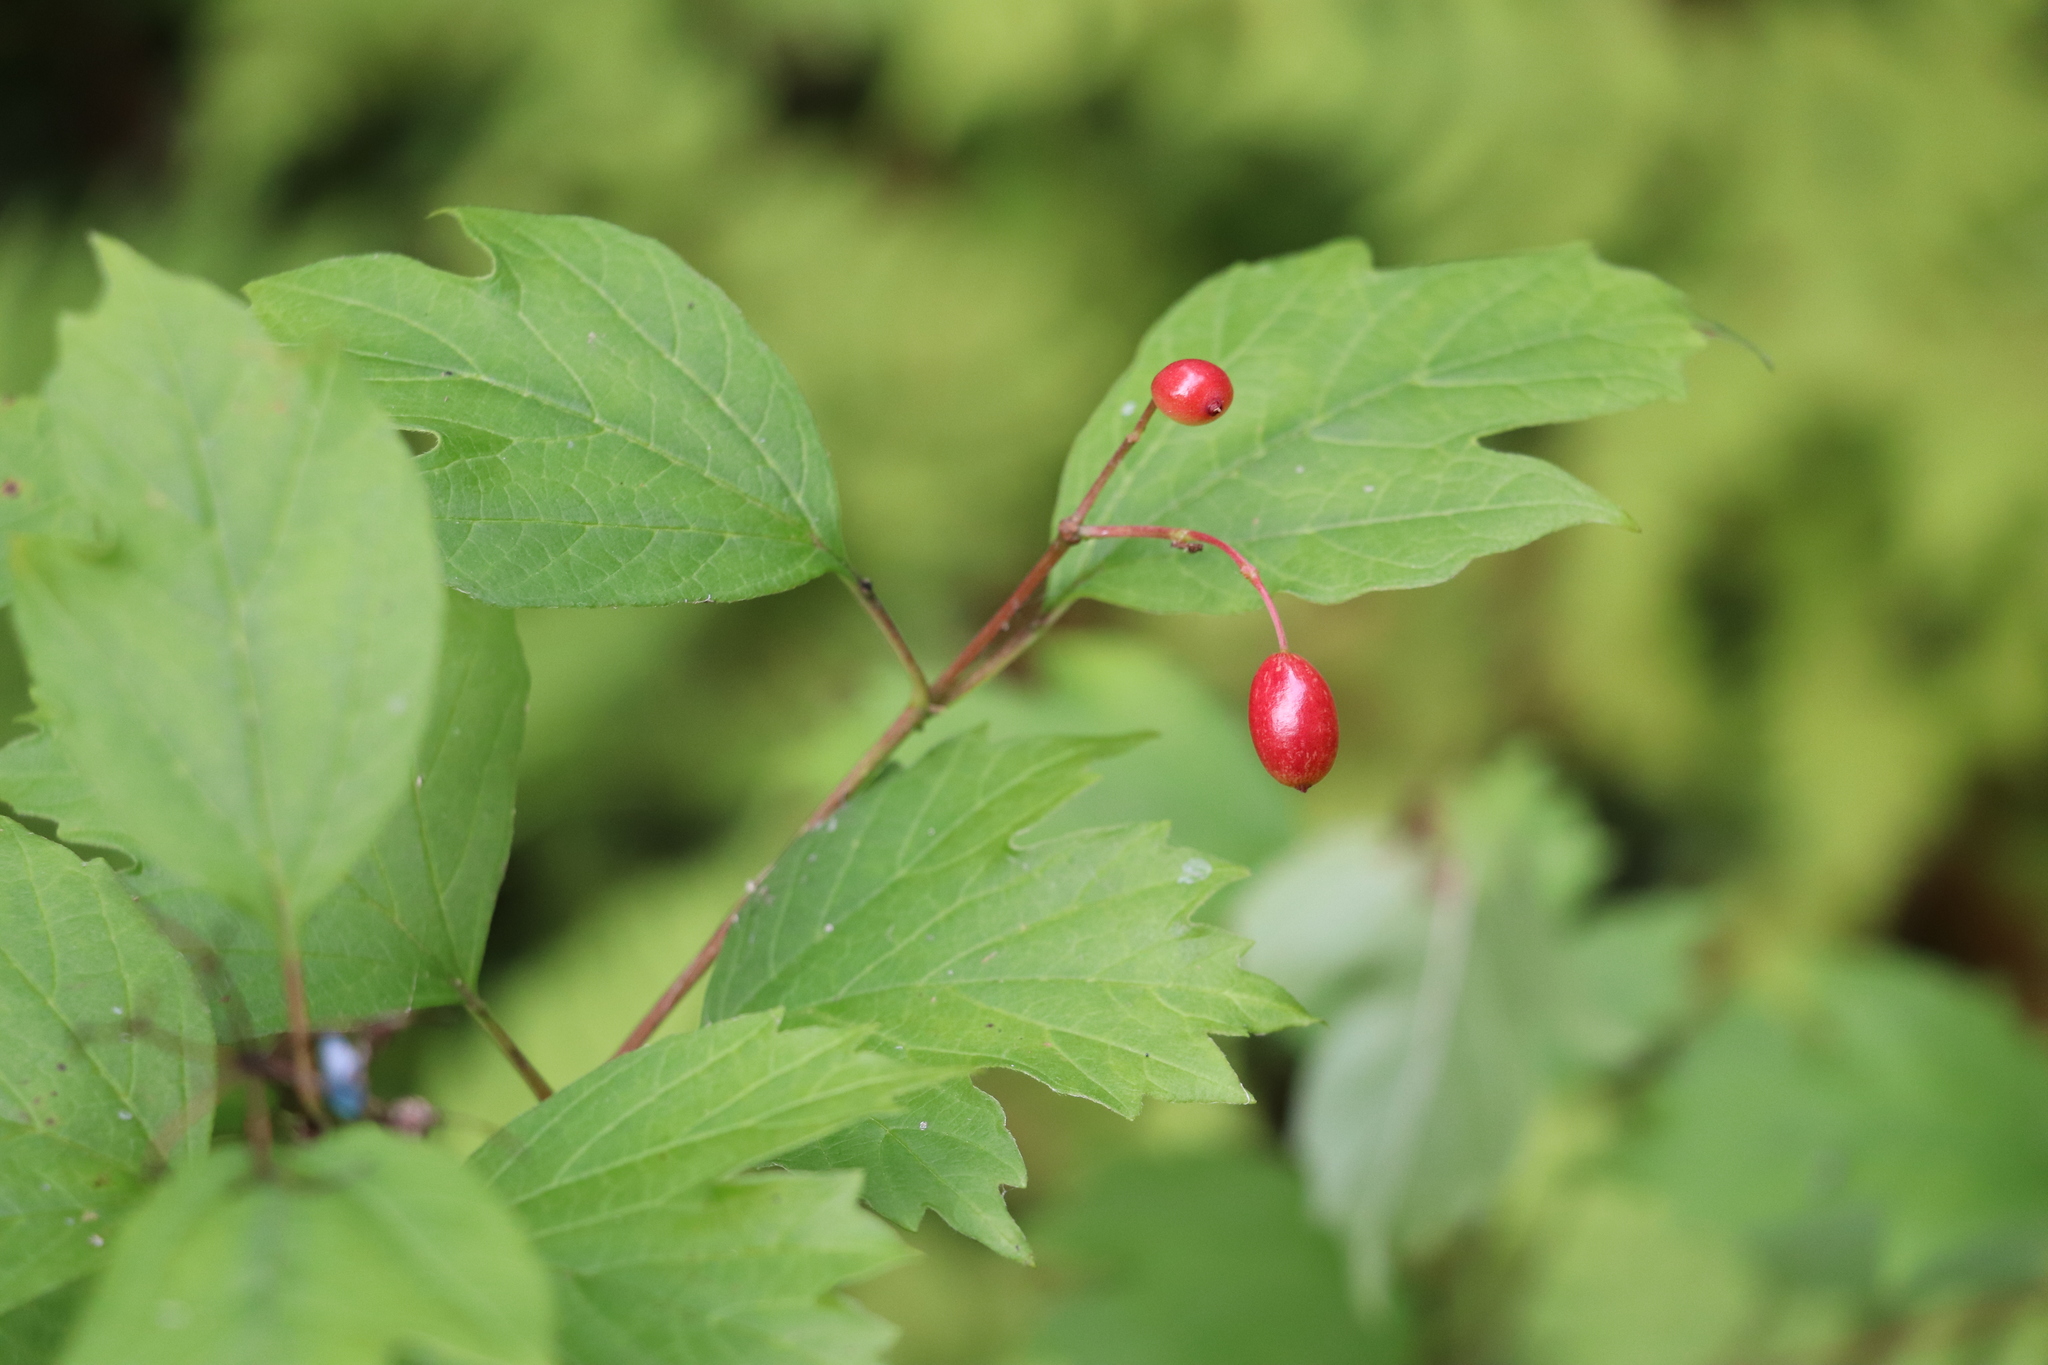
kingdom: Plantae
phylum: Tracheophyta
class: Magnoliopsida
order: Dipsacales
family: Viburnaceae
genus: Viburnum
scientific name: Viburnum opulus
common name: Guelder-rose
